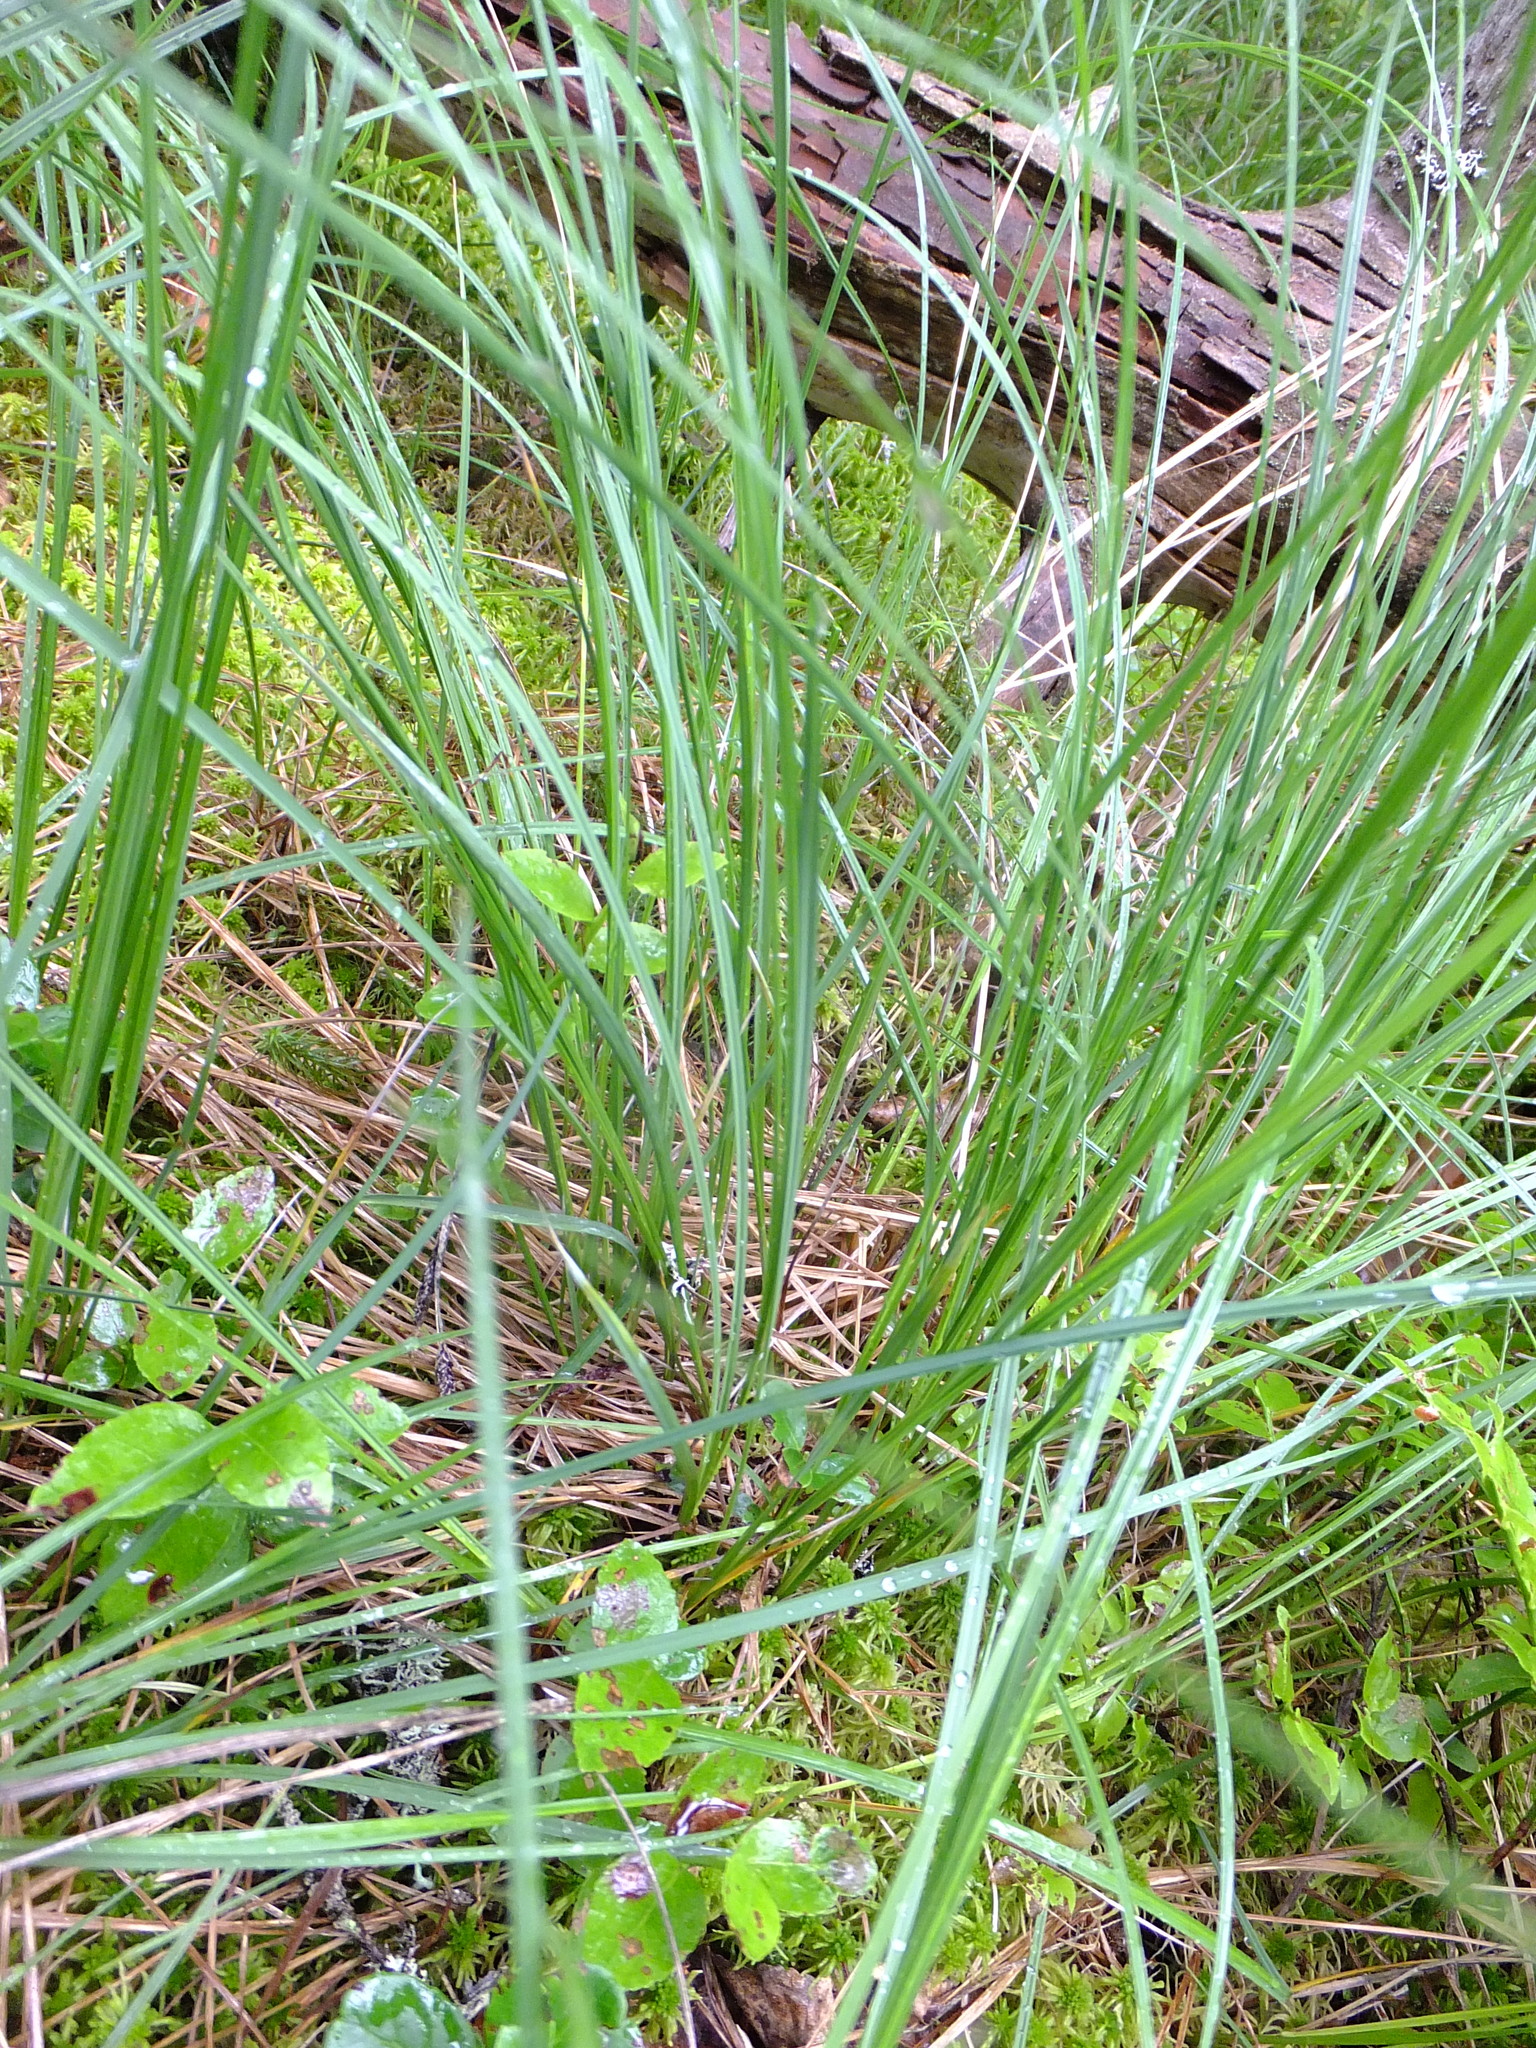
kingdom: Plantae
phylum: Tracheophyta
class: Liliopsida
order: Poales
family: Cyperaceae
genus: Carex
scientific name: Carex nigra
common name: Common sedge
